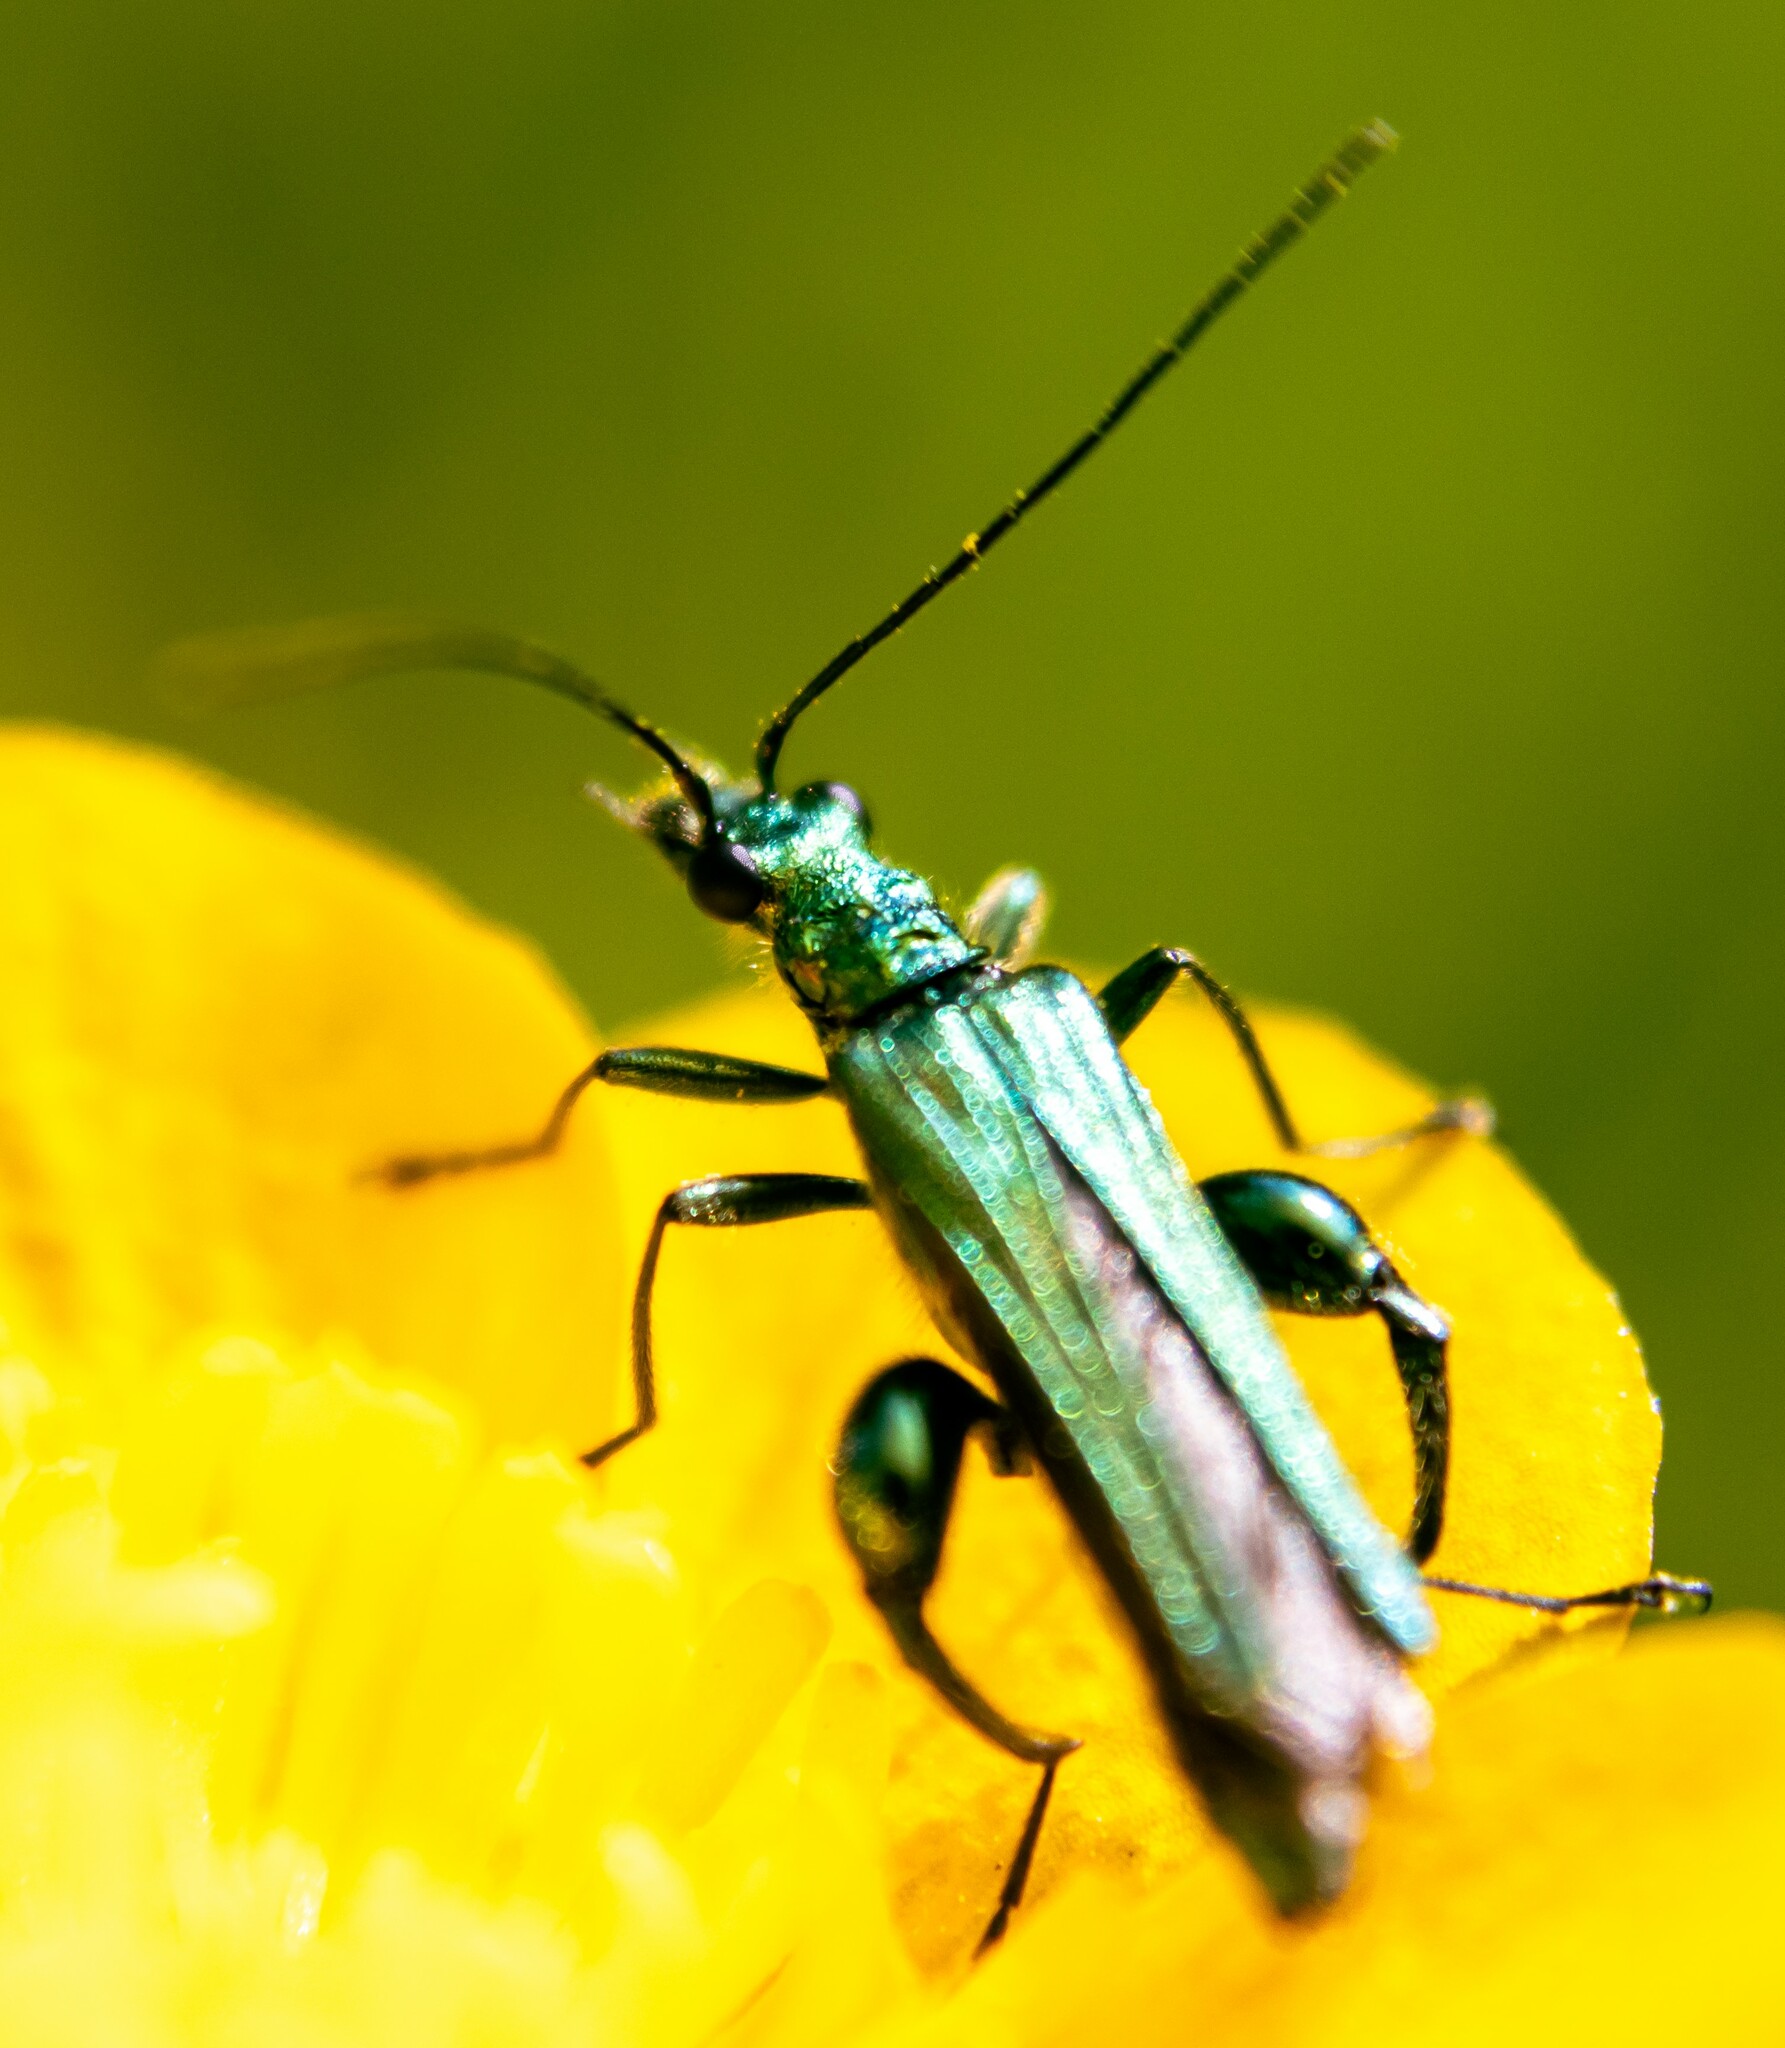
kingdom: Animalia
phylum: Arthropoda
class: Insecta
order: Coleoptera
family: Oedemeridae
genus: Oedemera
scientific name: Oedemera nobilis
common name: Swollen-thighed beetle
